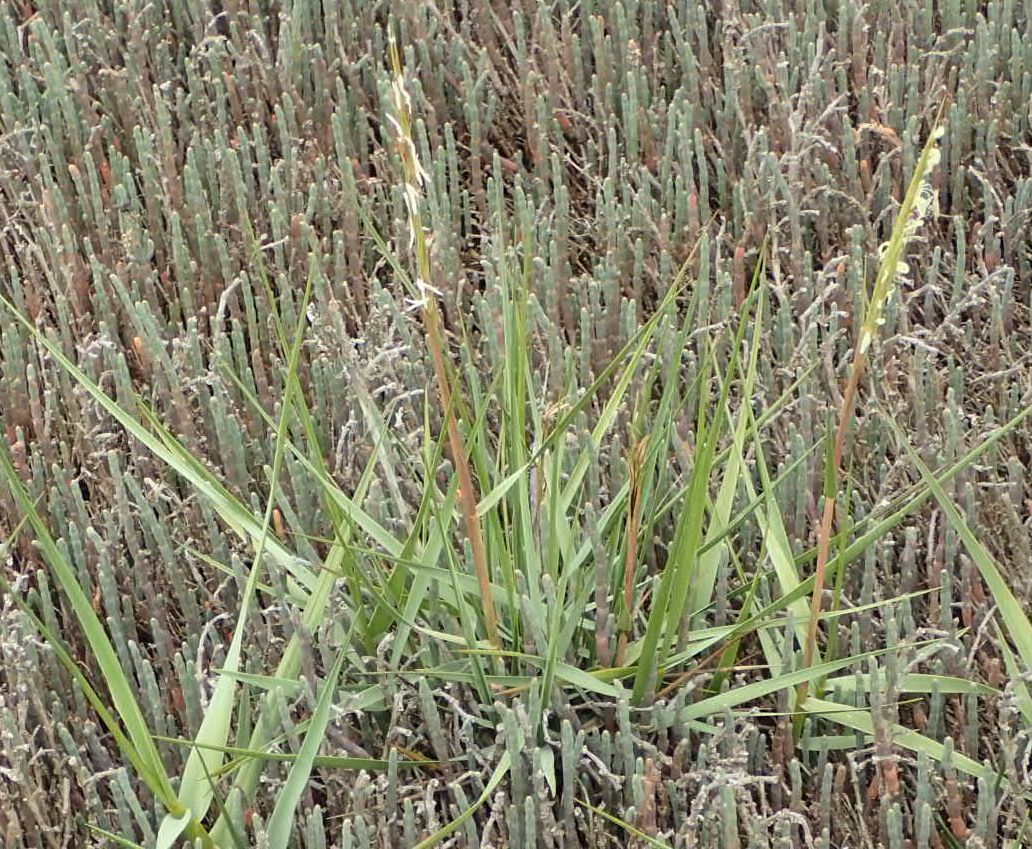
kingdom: Plantae
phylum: Tracheophyta
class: Liliopsida
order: Poales
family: Poaceae
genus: Sporobolus
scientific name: Sporobolus anglicus
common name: English cordgrass
